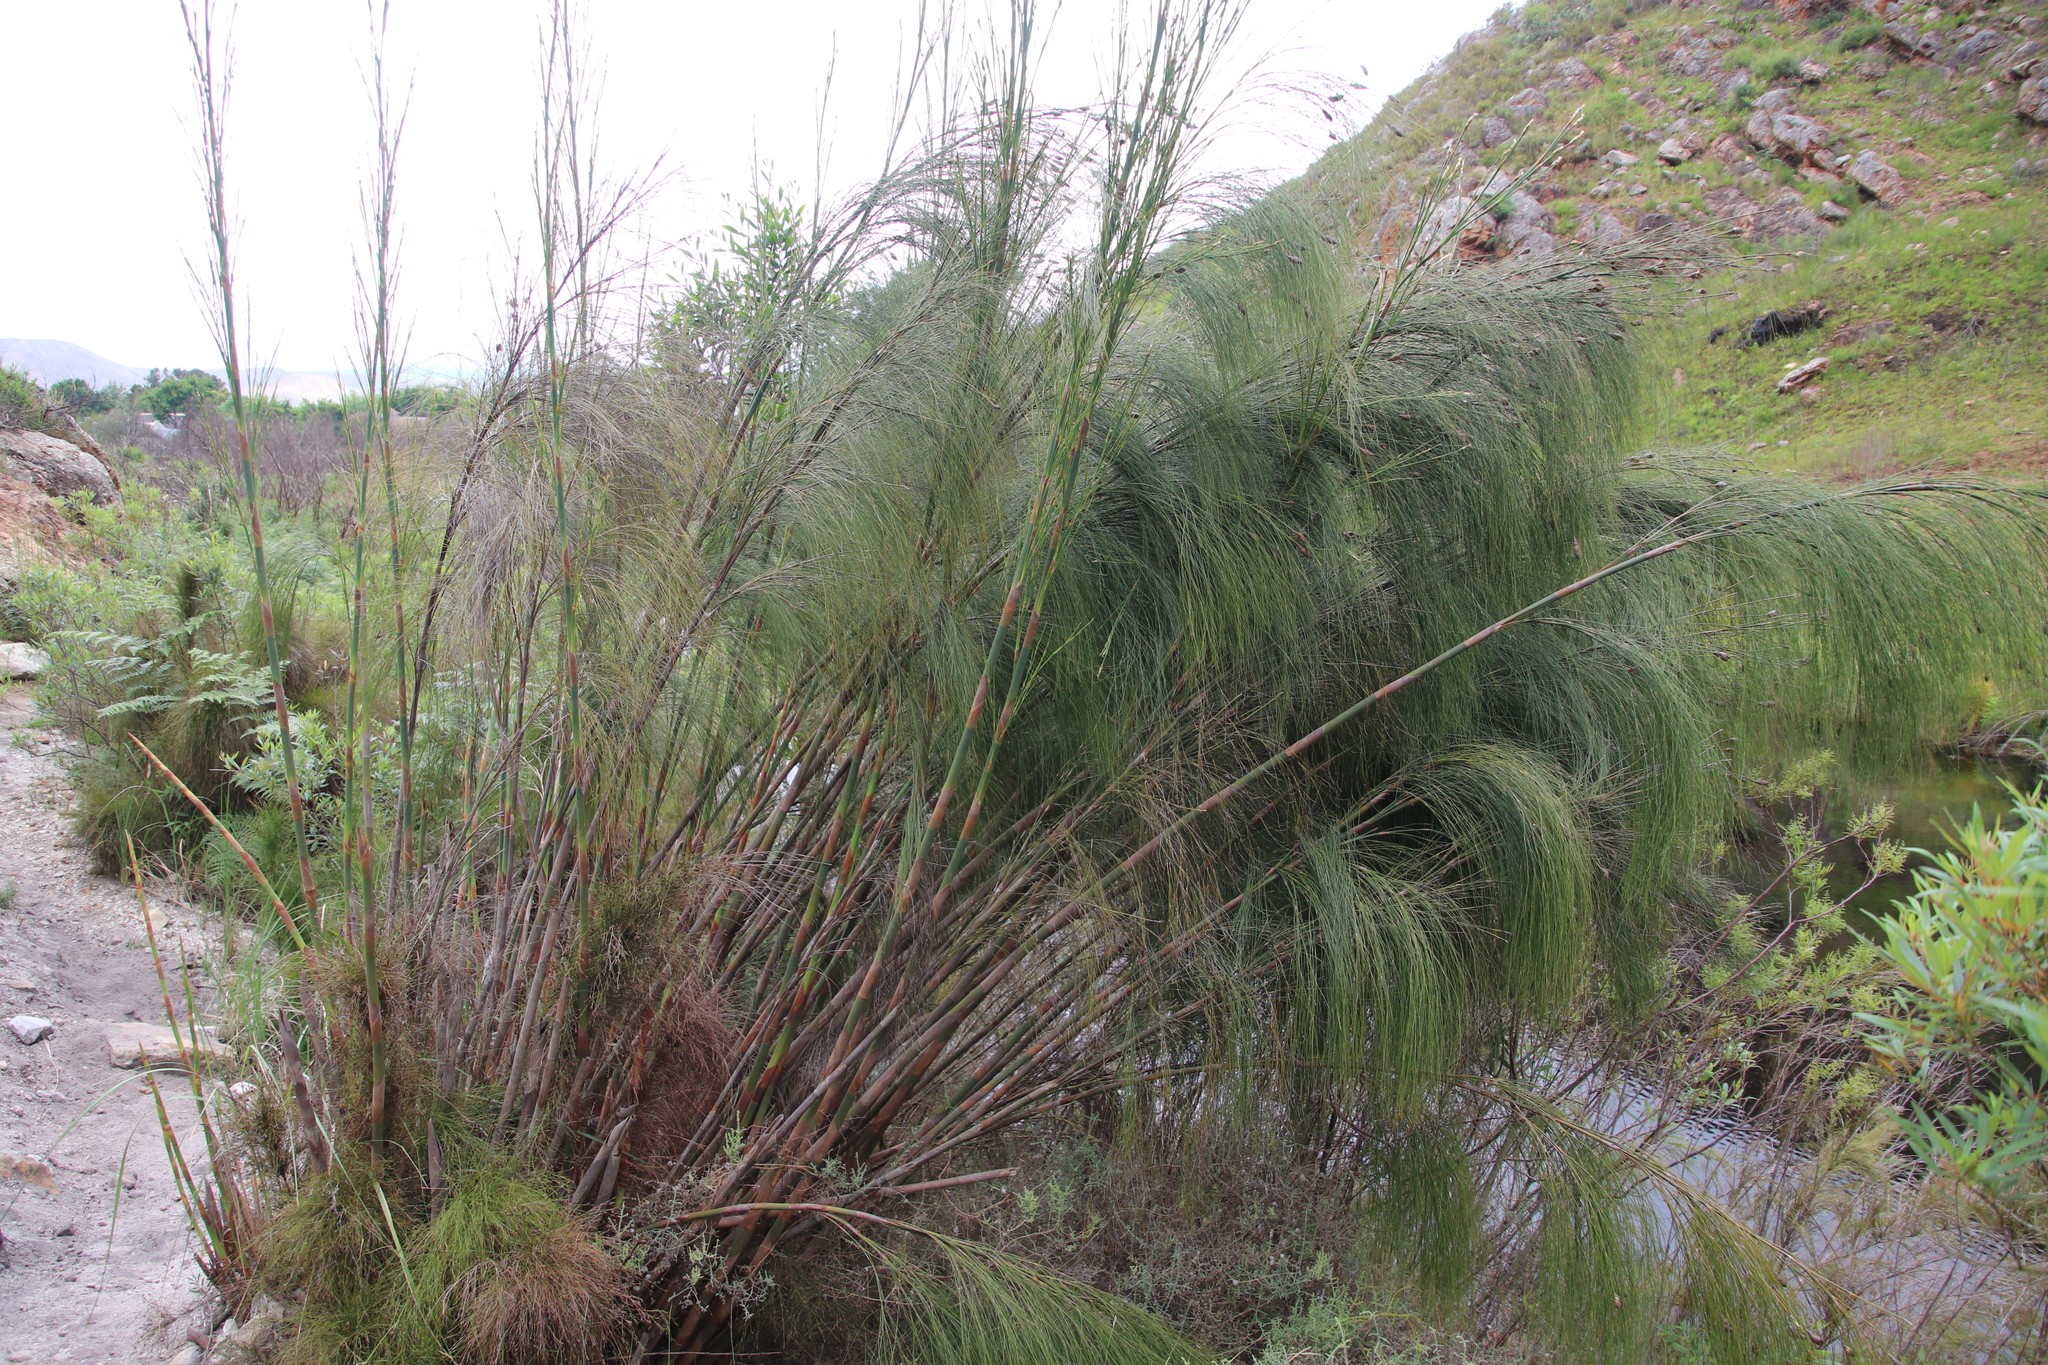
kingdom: Plantae
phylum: Tracheophyta
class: Liliopsida
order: Poales
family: Restionaceae
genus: Cannomois
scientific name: Cannomois grandis
